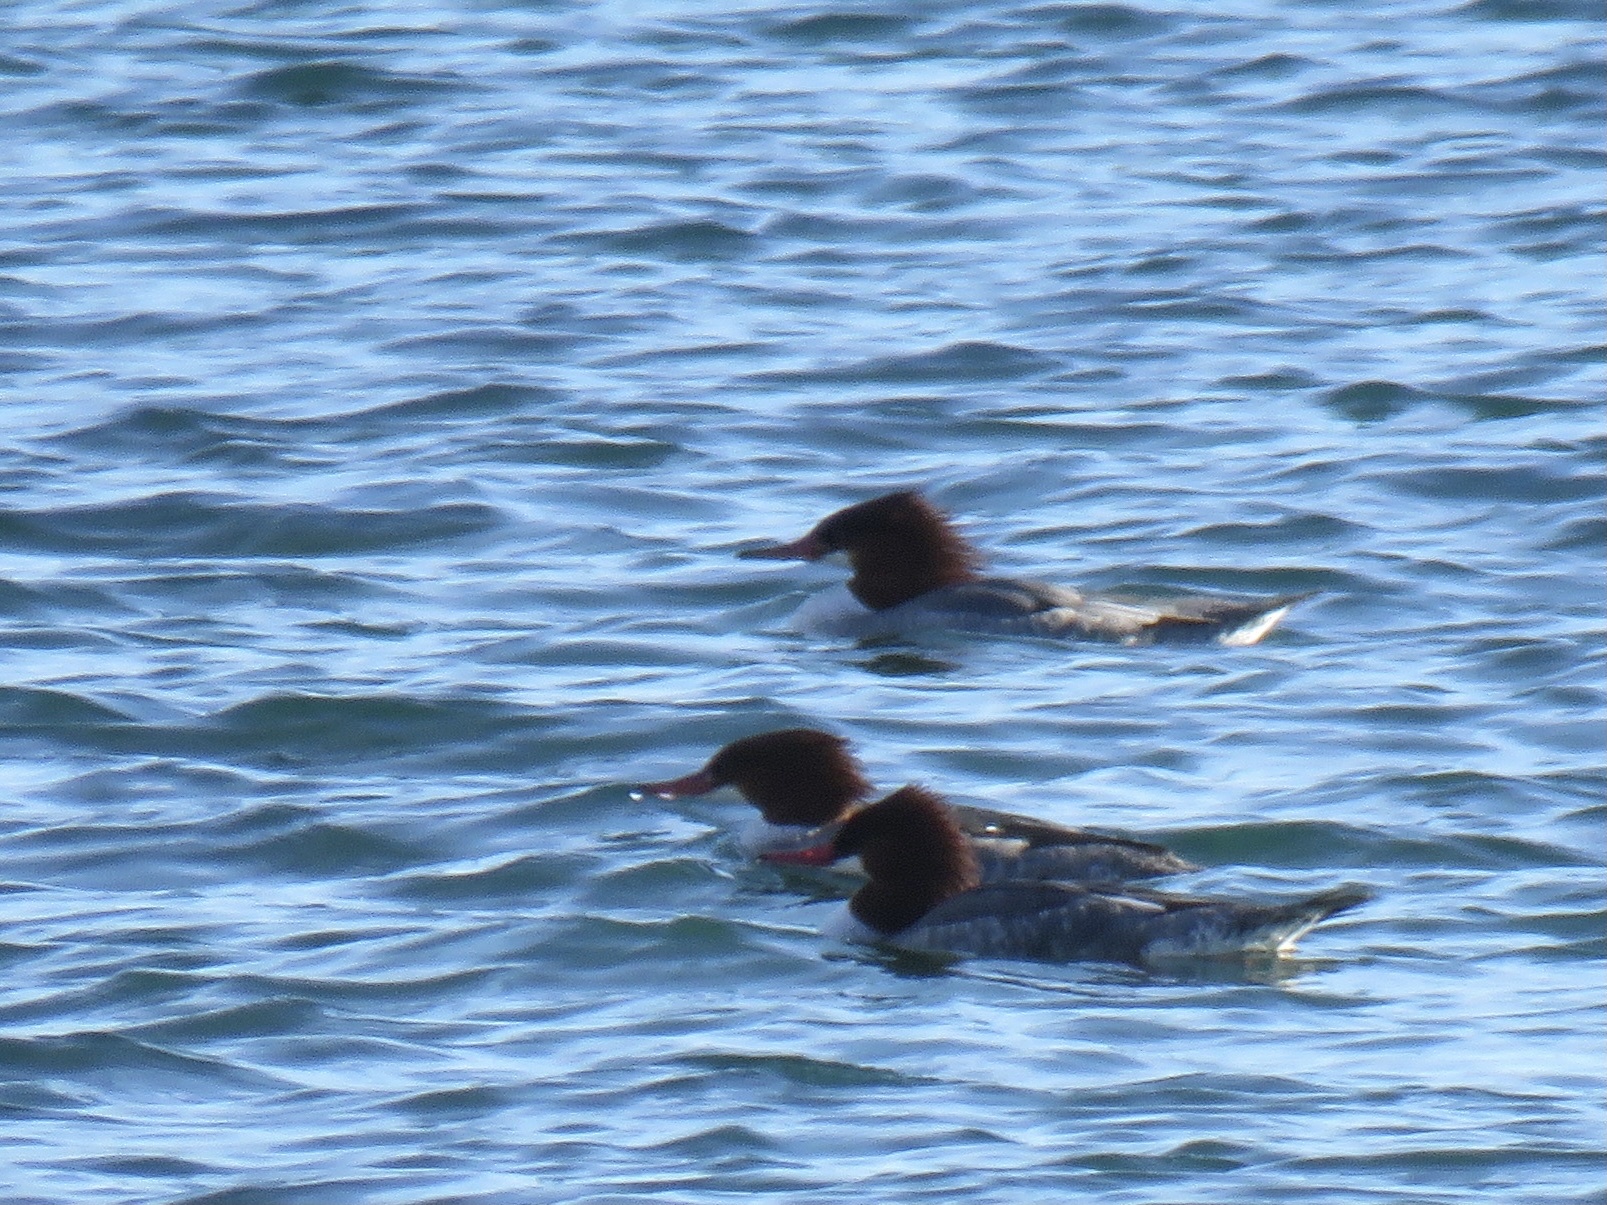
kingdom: Animalia
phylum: Chordata
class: Aves
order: Anseriformes
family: Anatidae
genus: Mergus
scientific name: Mergus merganser
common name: Common merganser
